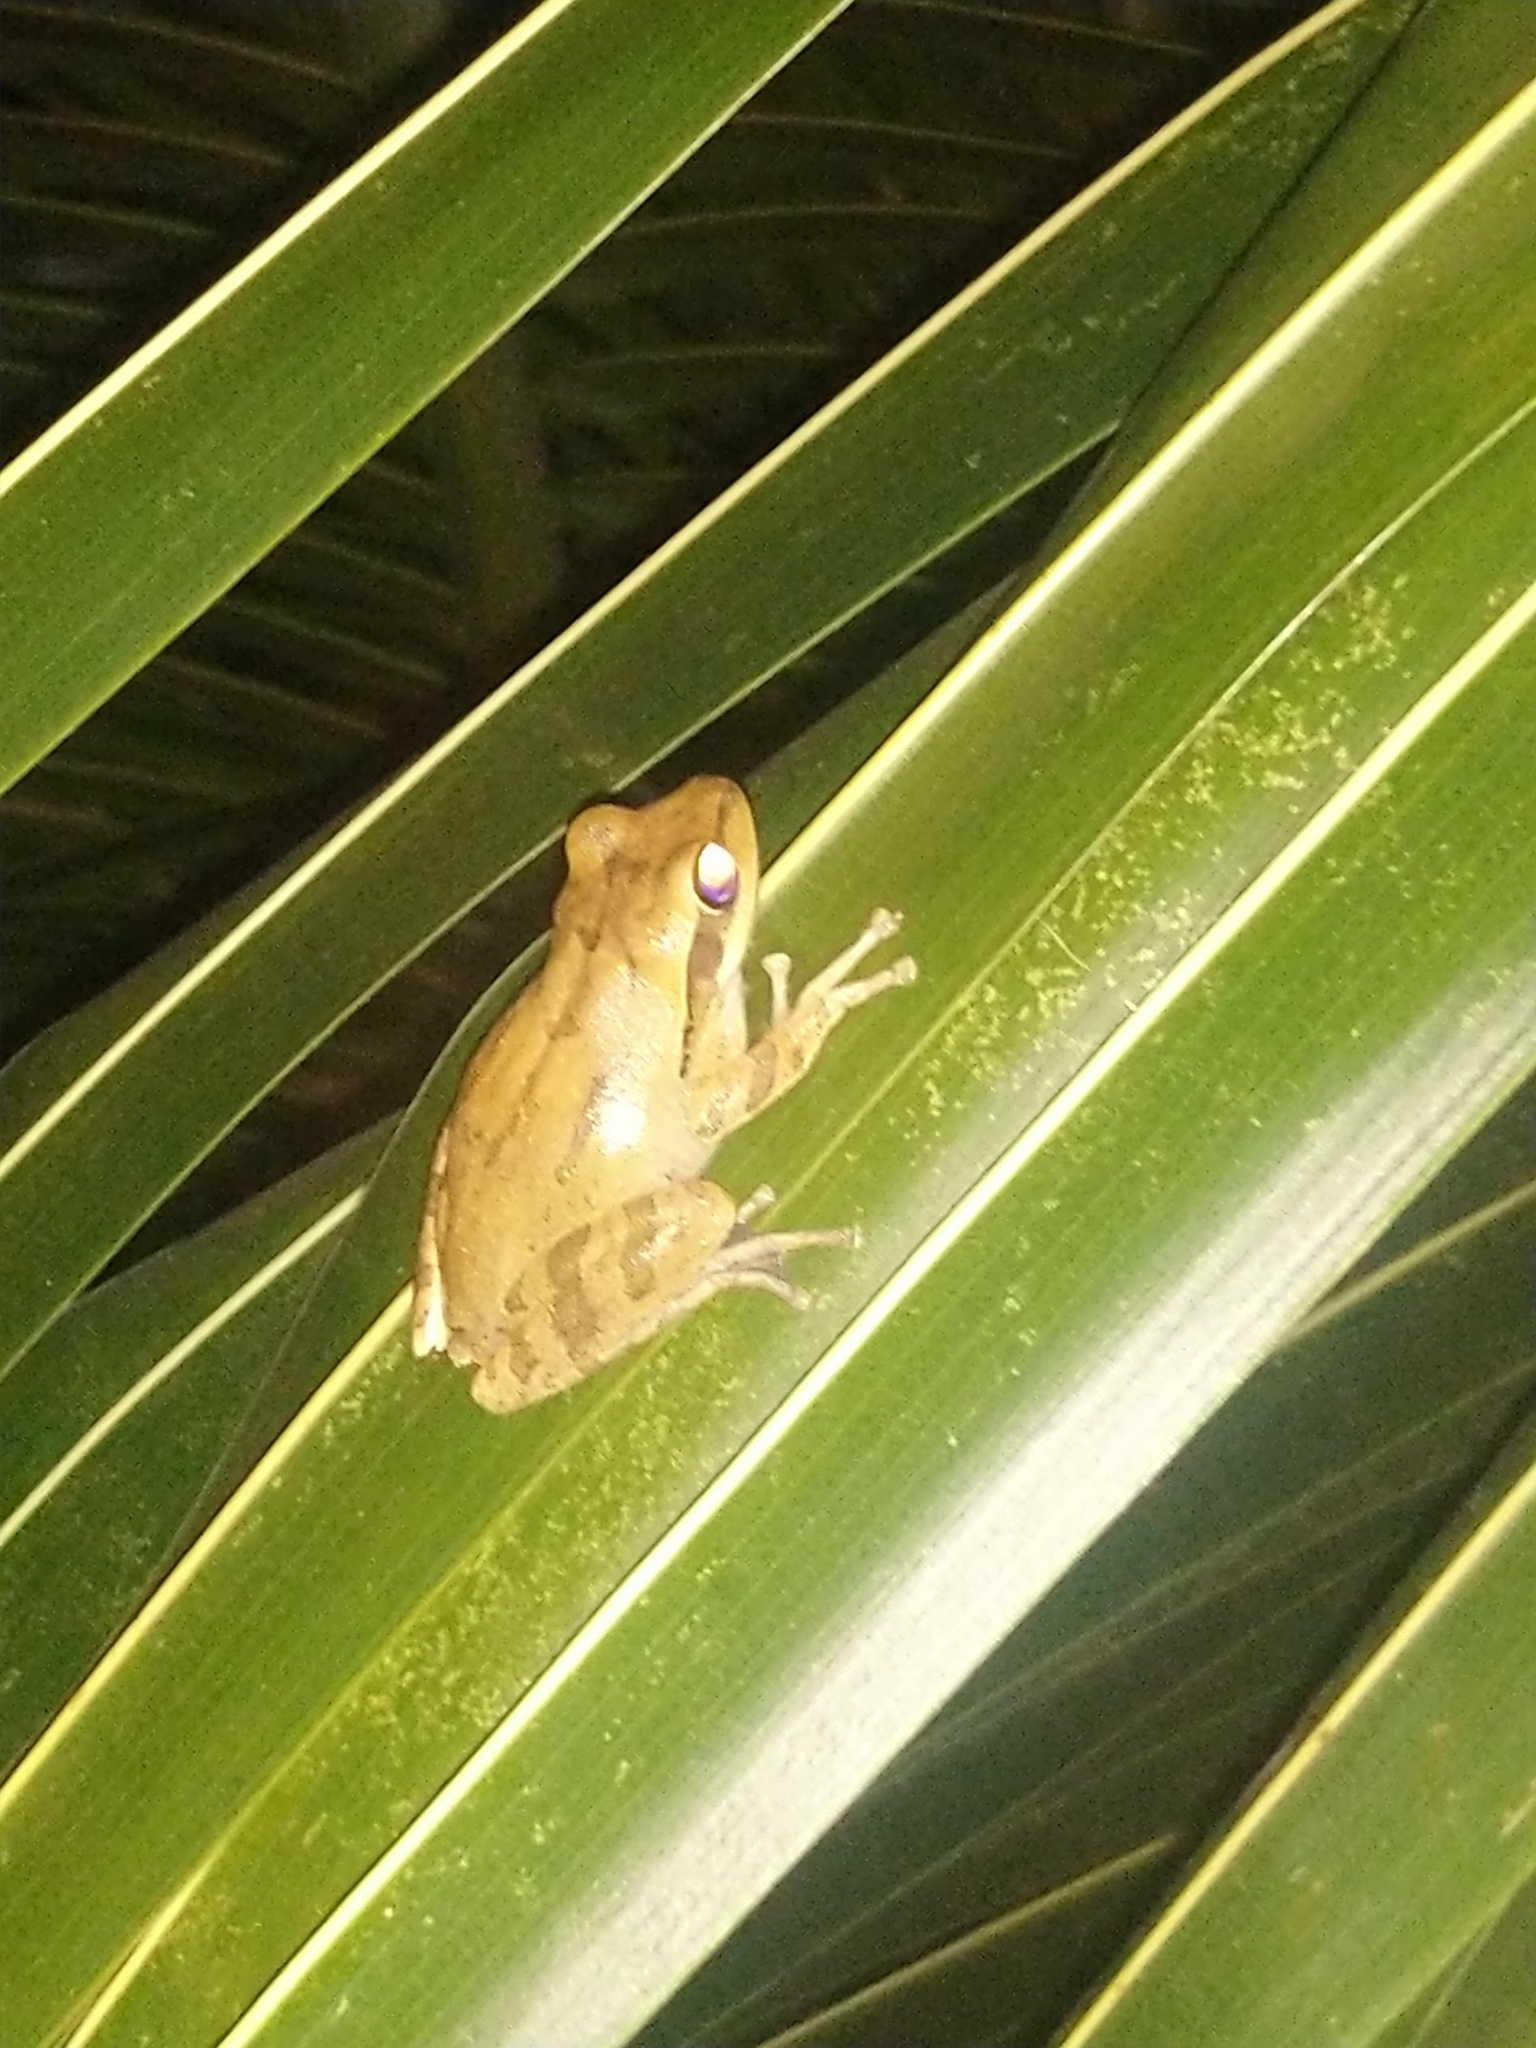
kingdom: Animalia
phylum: Chordata
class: Amphibia
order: Anura
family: Rhacophoridae
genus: Polypedates
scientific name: Polypedates maculatus
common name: Himalayan tree frog
